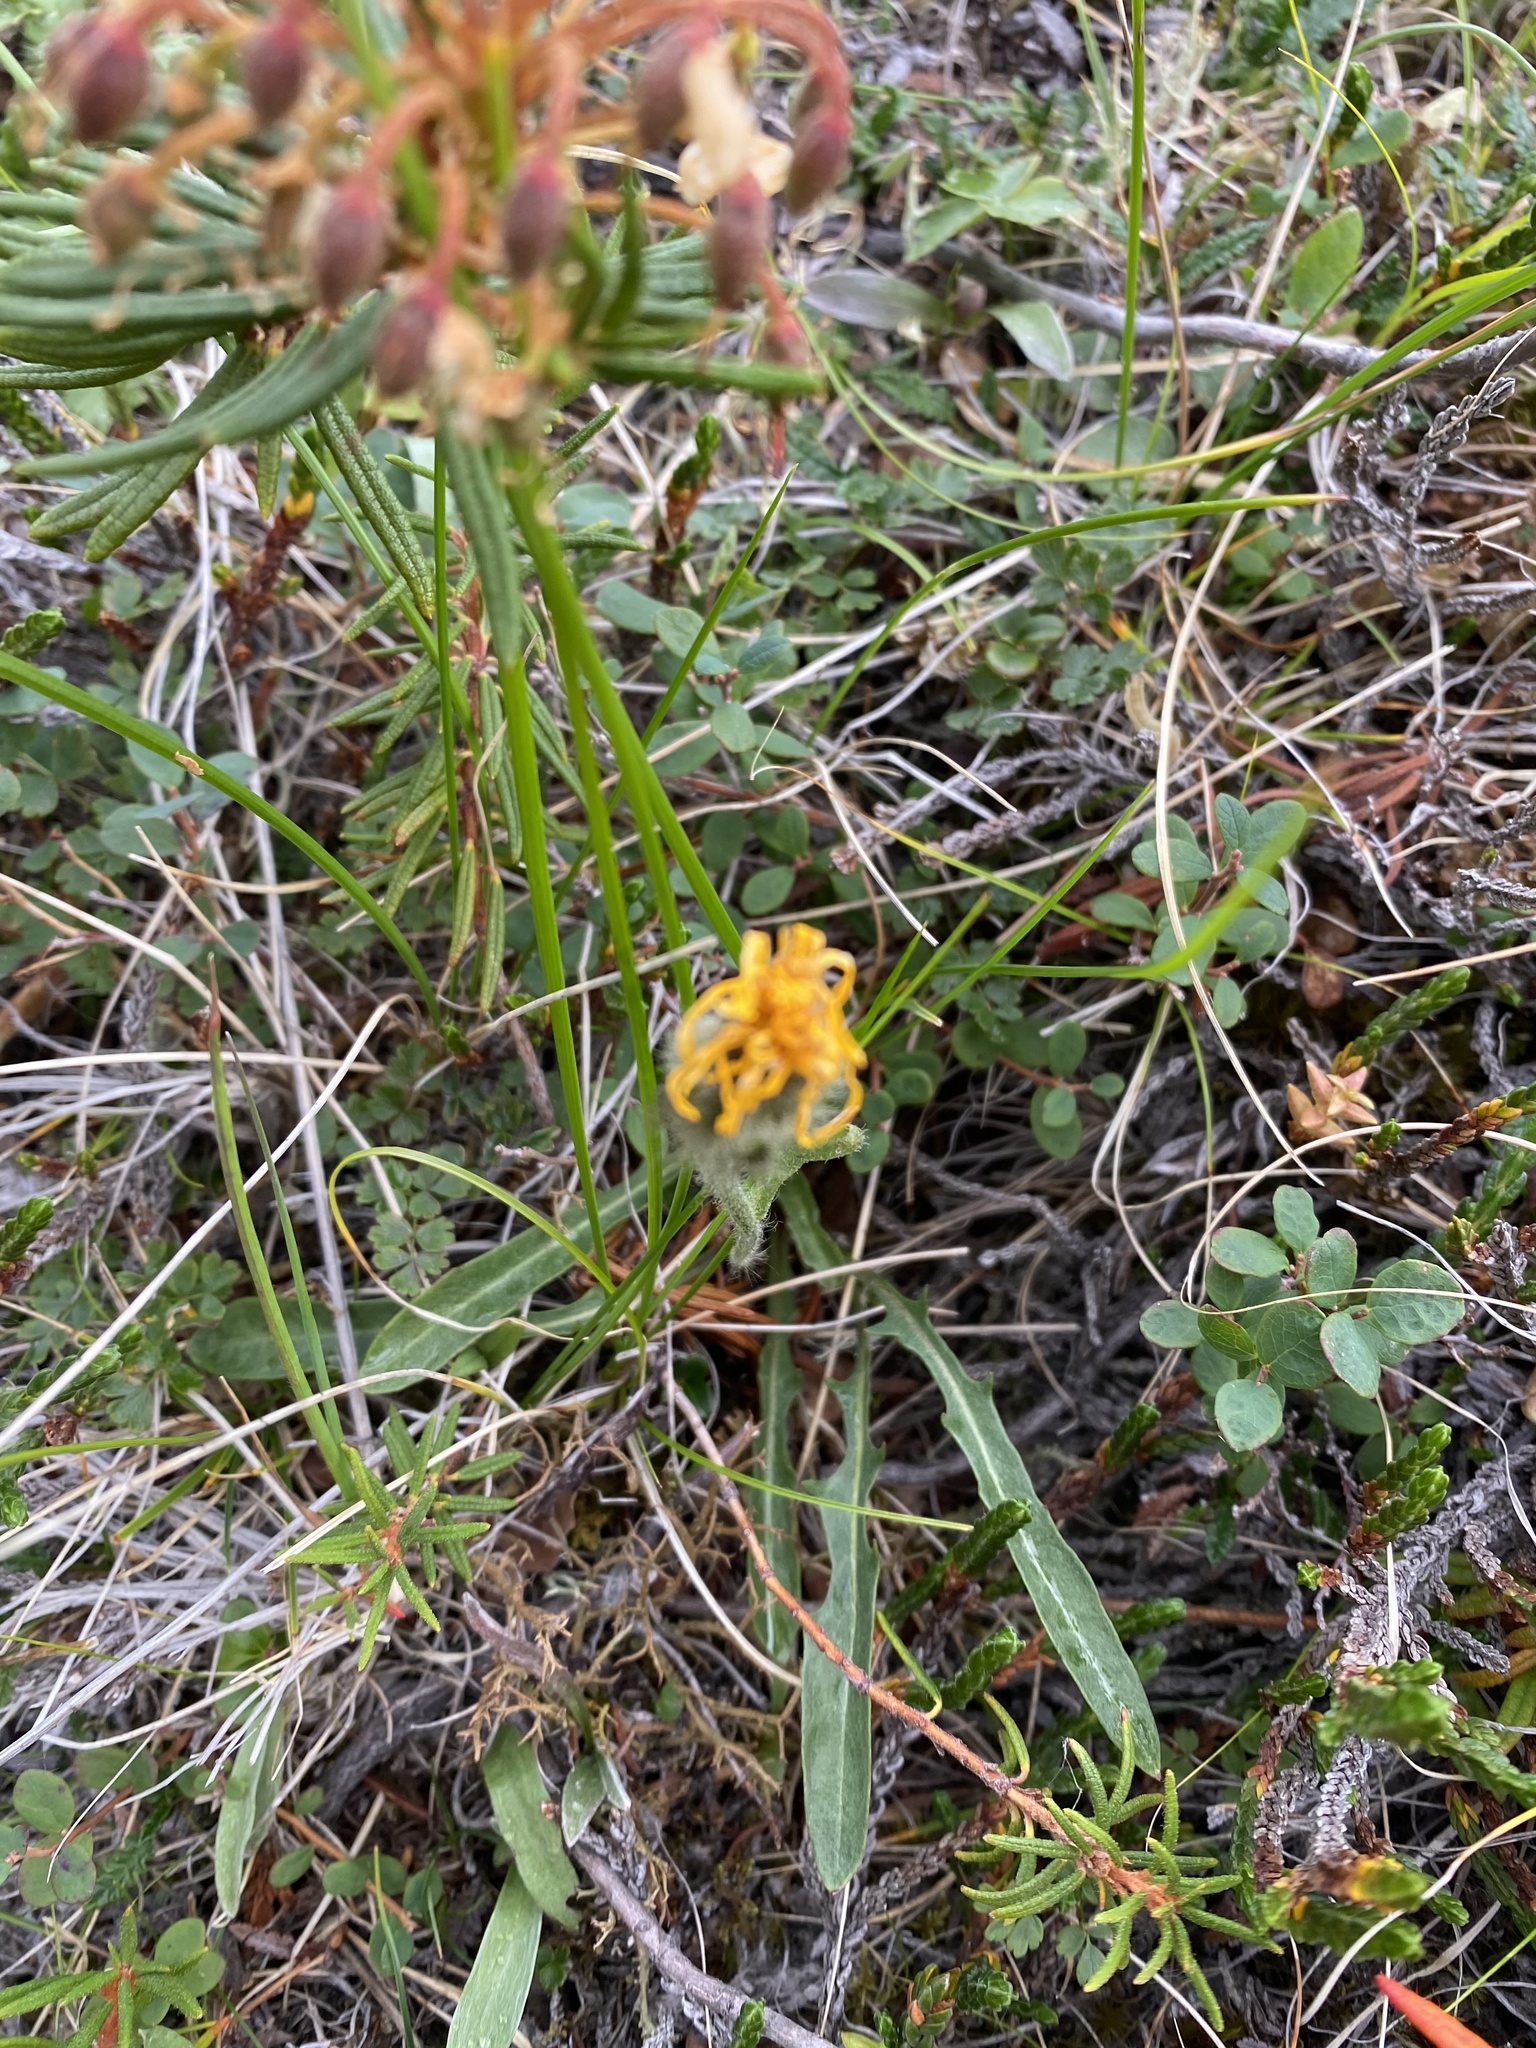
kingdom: Plantae
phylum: Tracheophyta
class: Magnoliopsida
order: Asterales
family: Asteraceae
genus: Crepis
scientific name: Crepis chrysantha
